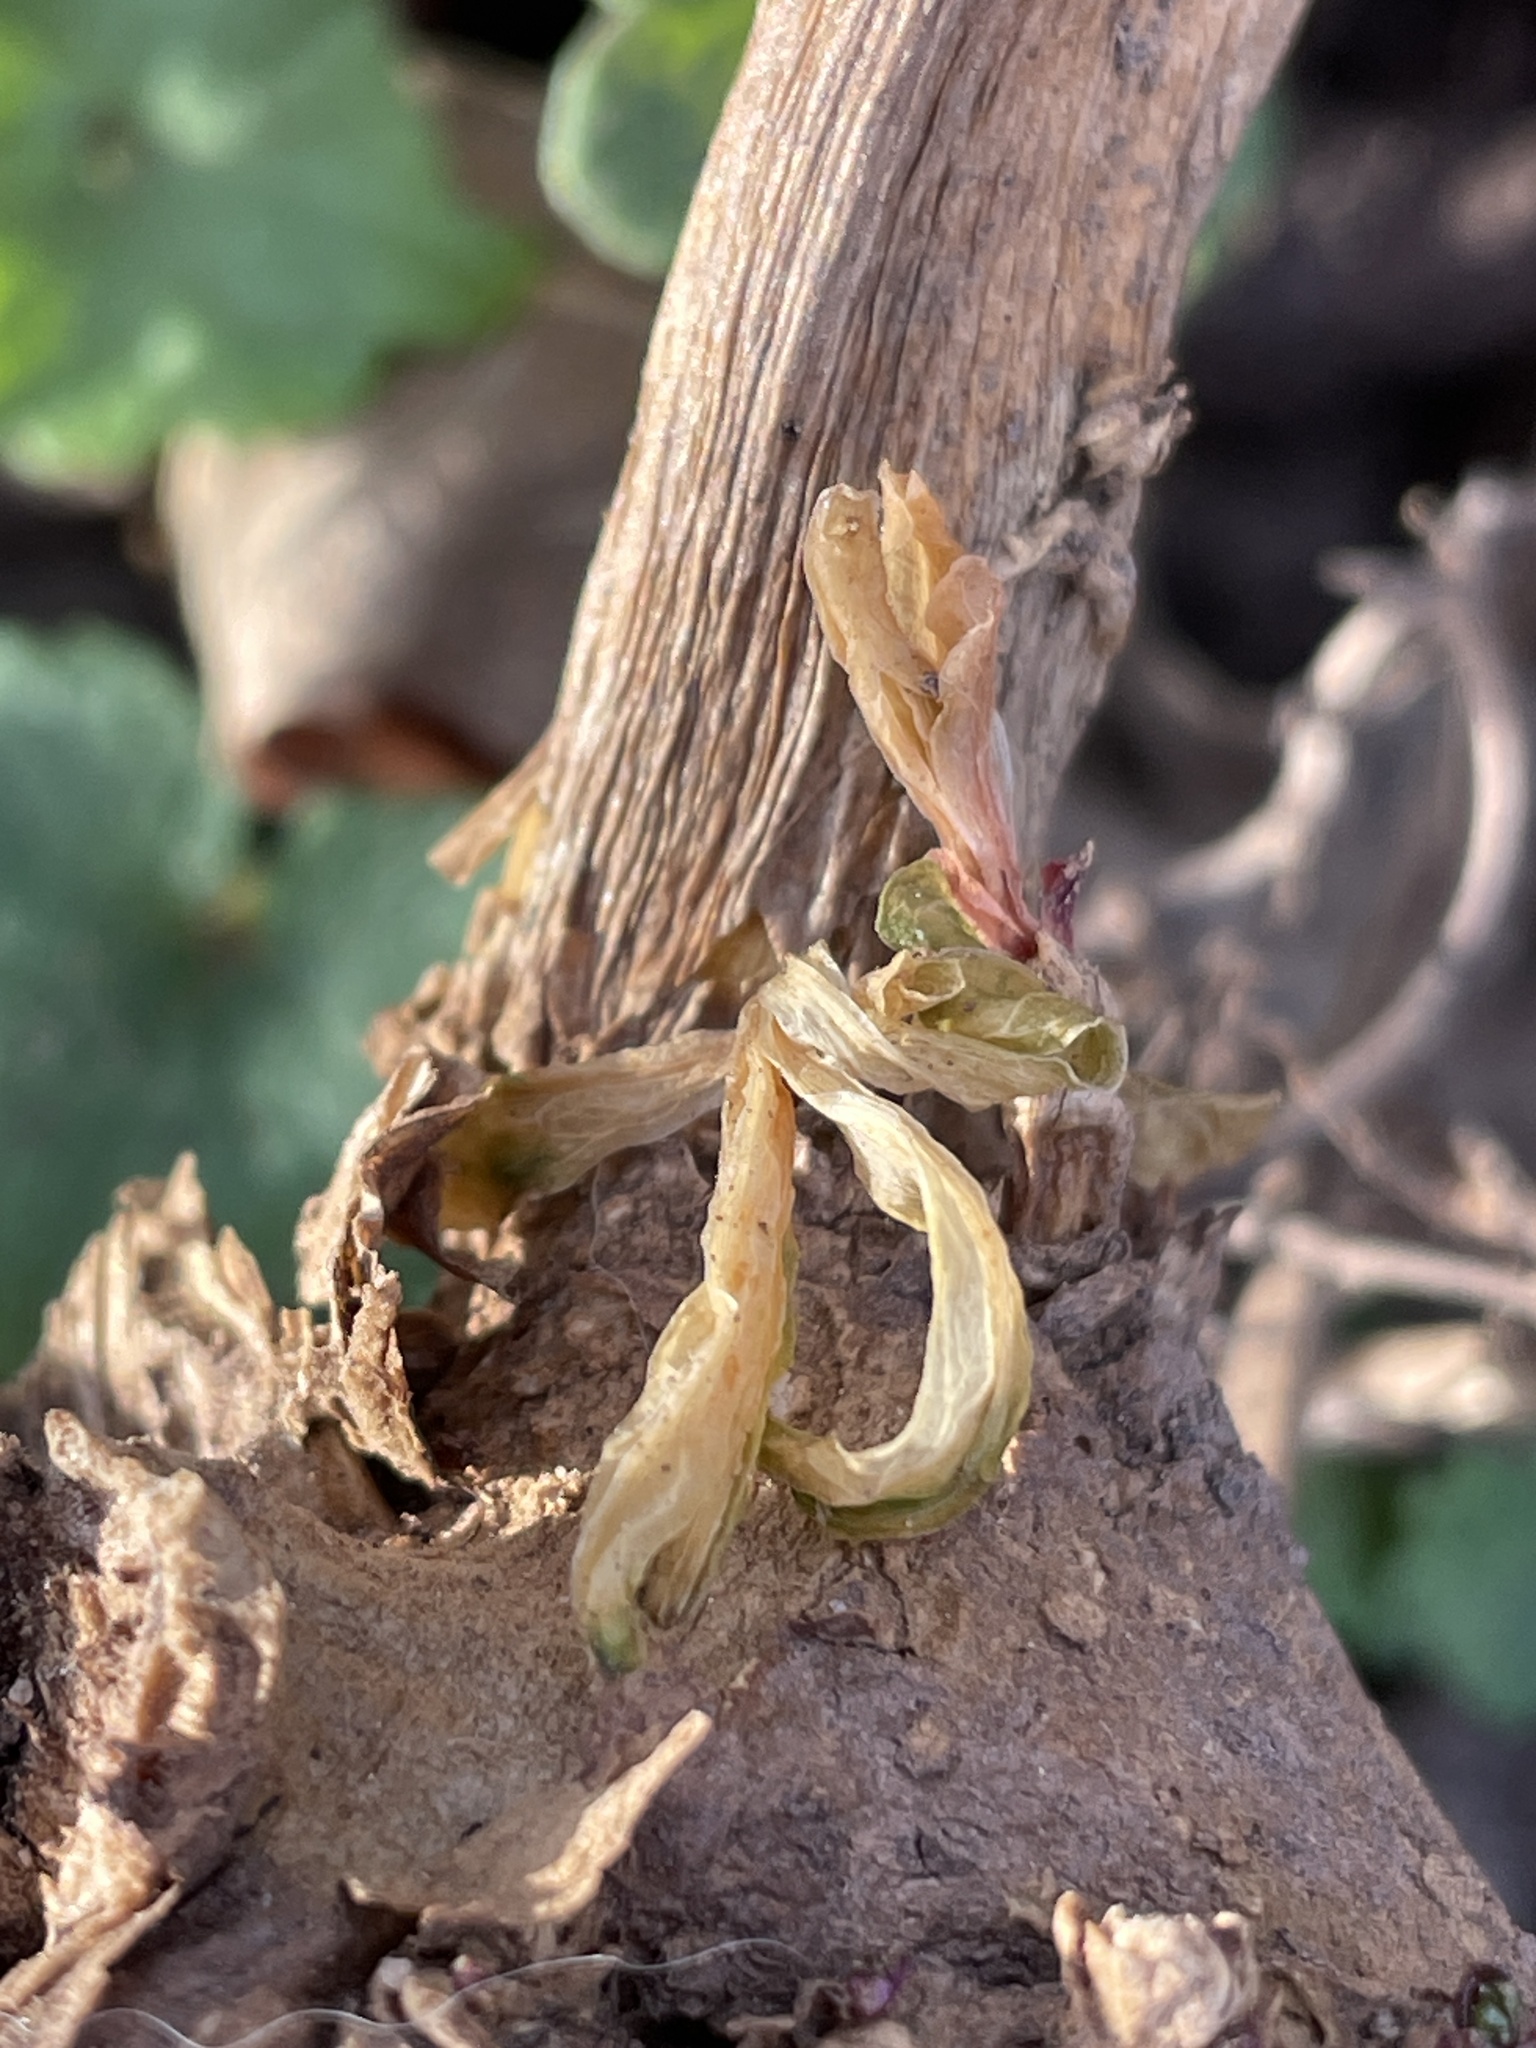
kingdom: Plantae
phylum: Tracheophyta
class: Magnoliopsida
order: Caryophyllales
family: Phytolaccaceae
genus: Phytolacca
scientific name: Phytolacca americana
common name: American pokeweed
